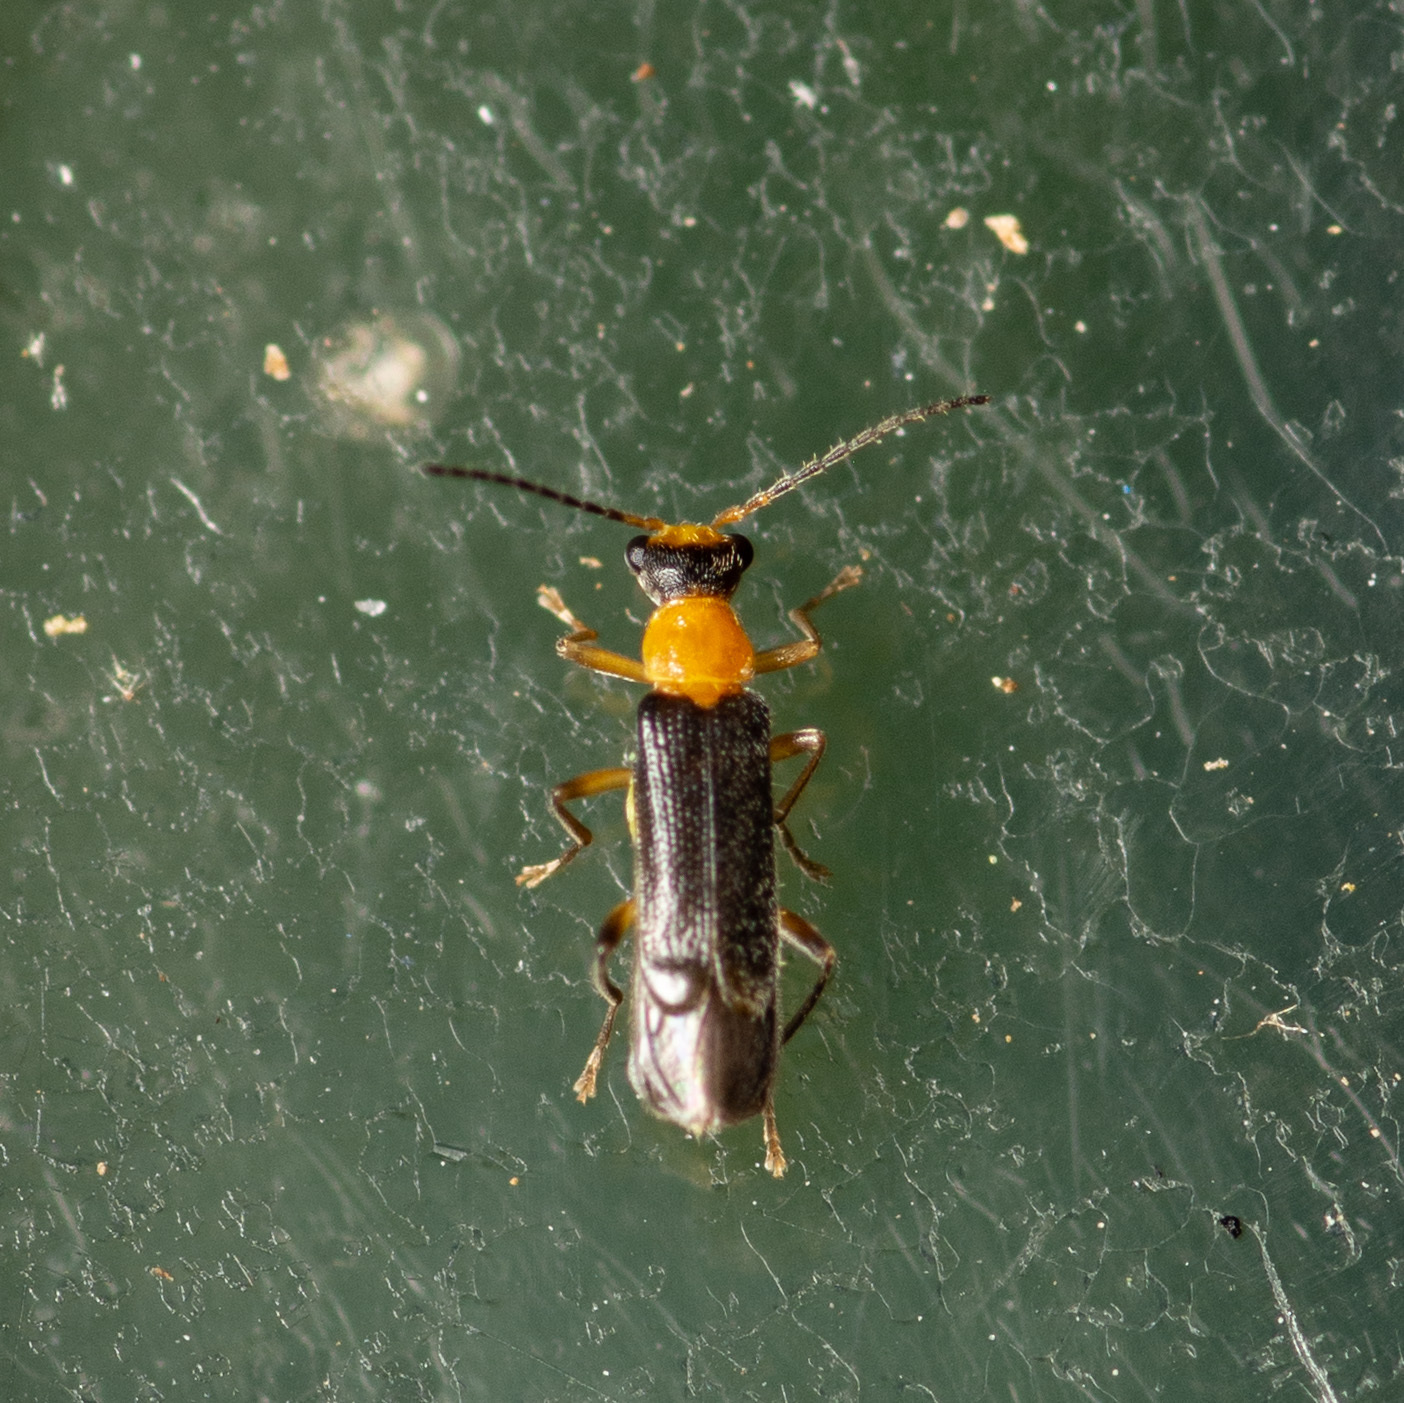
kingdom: Animalia
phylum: Arthropoda
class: Insecta
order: Coleoptera
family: Cantharidae
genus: Malthinus
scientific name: Malthinus occipitalis
